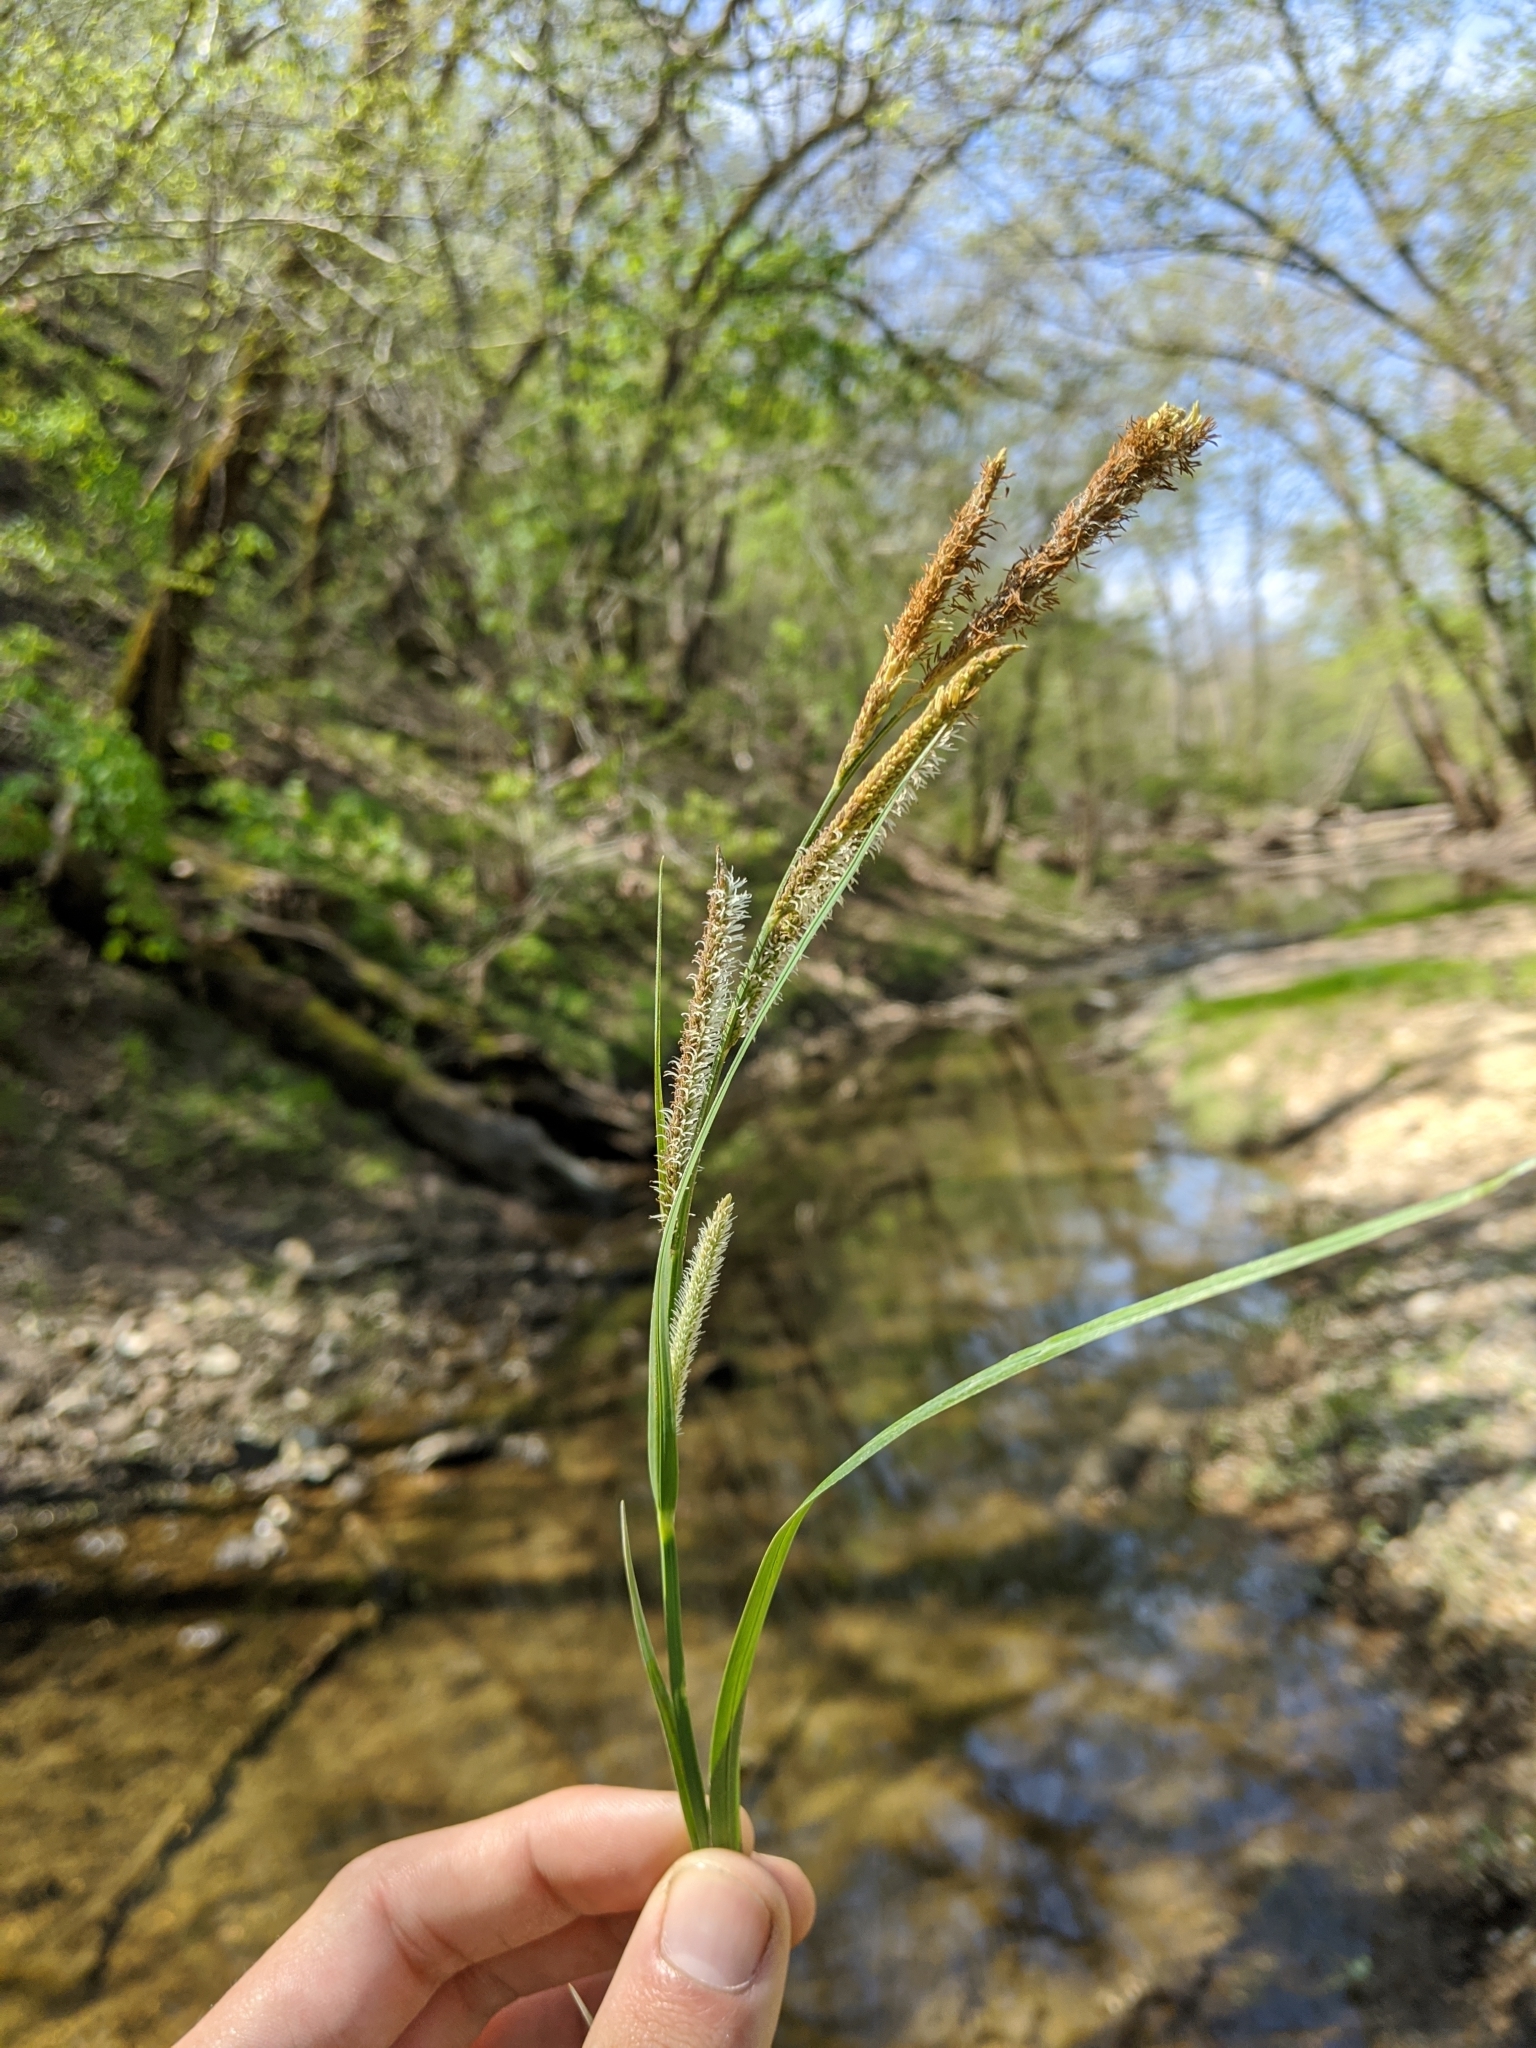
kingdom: Plantae
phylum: Tracheophyta
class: Liliopsida
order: Poales
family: Cyperaceae
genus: Carex
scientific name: Carex emoryi
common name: Emory's sedge
